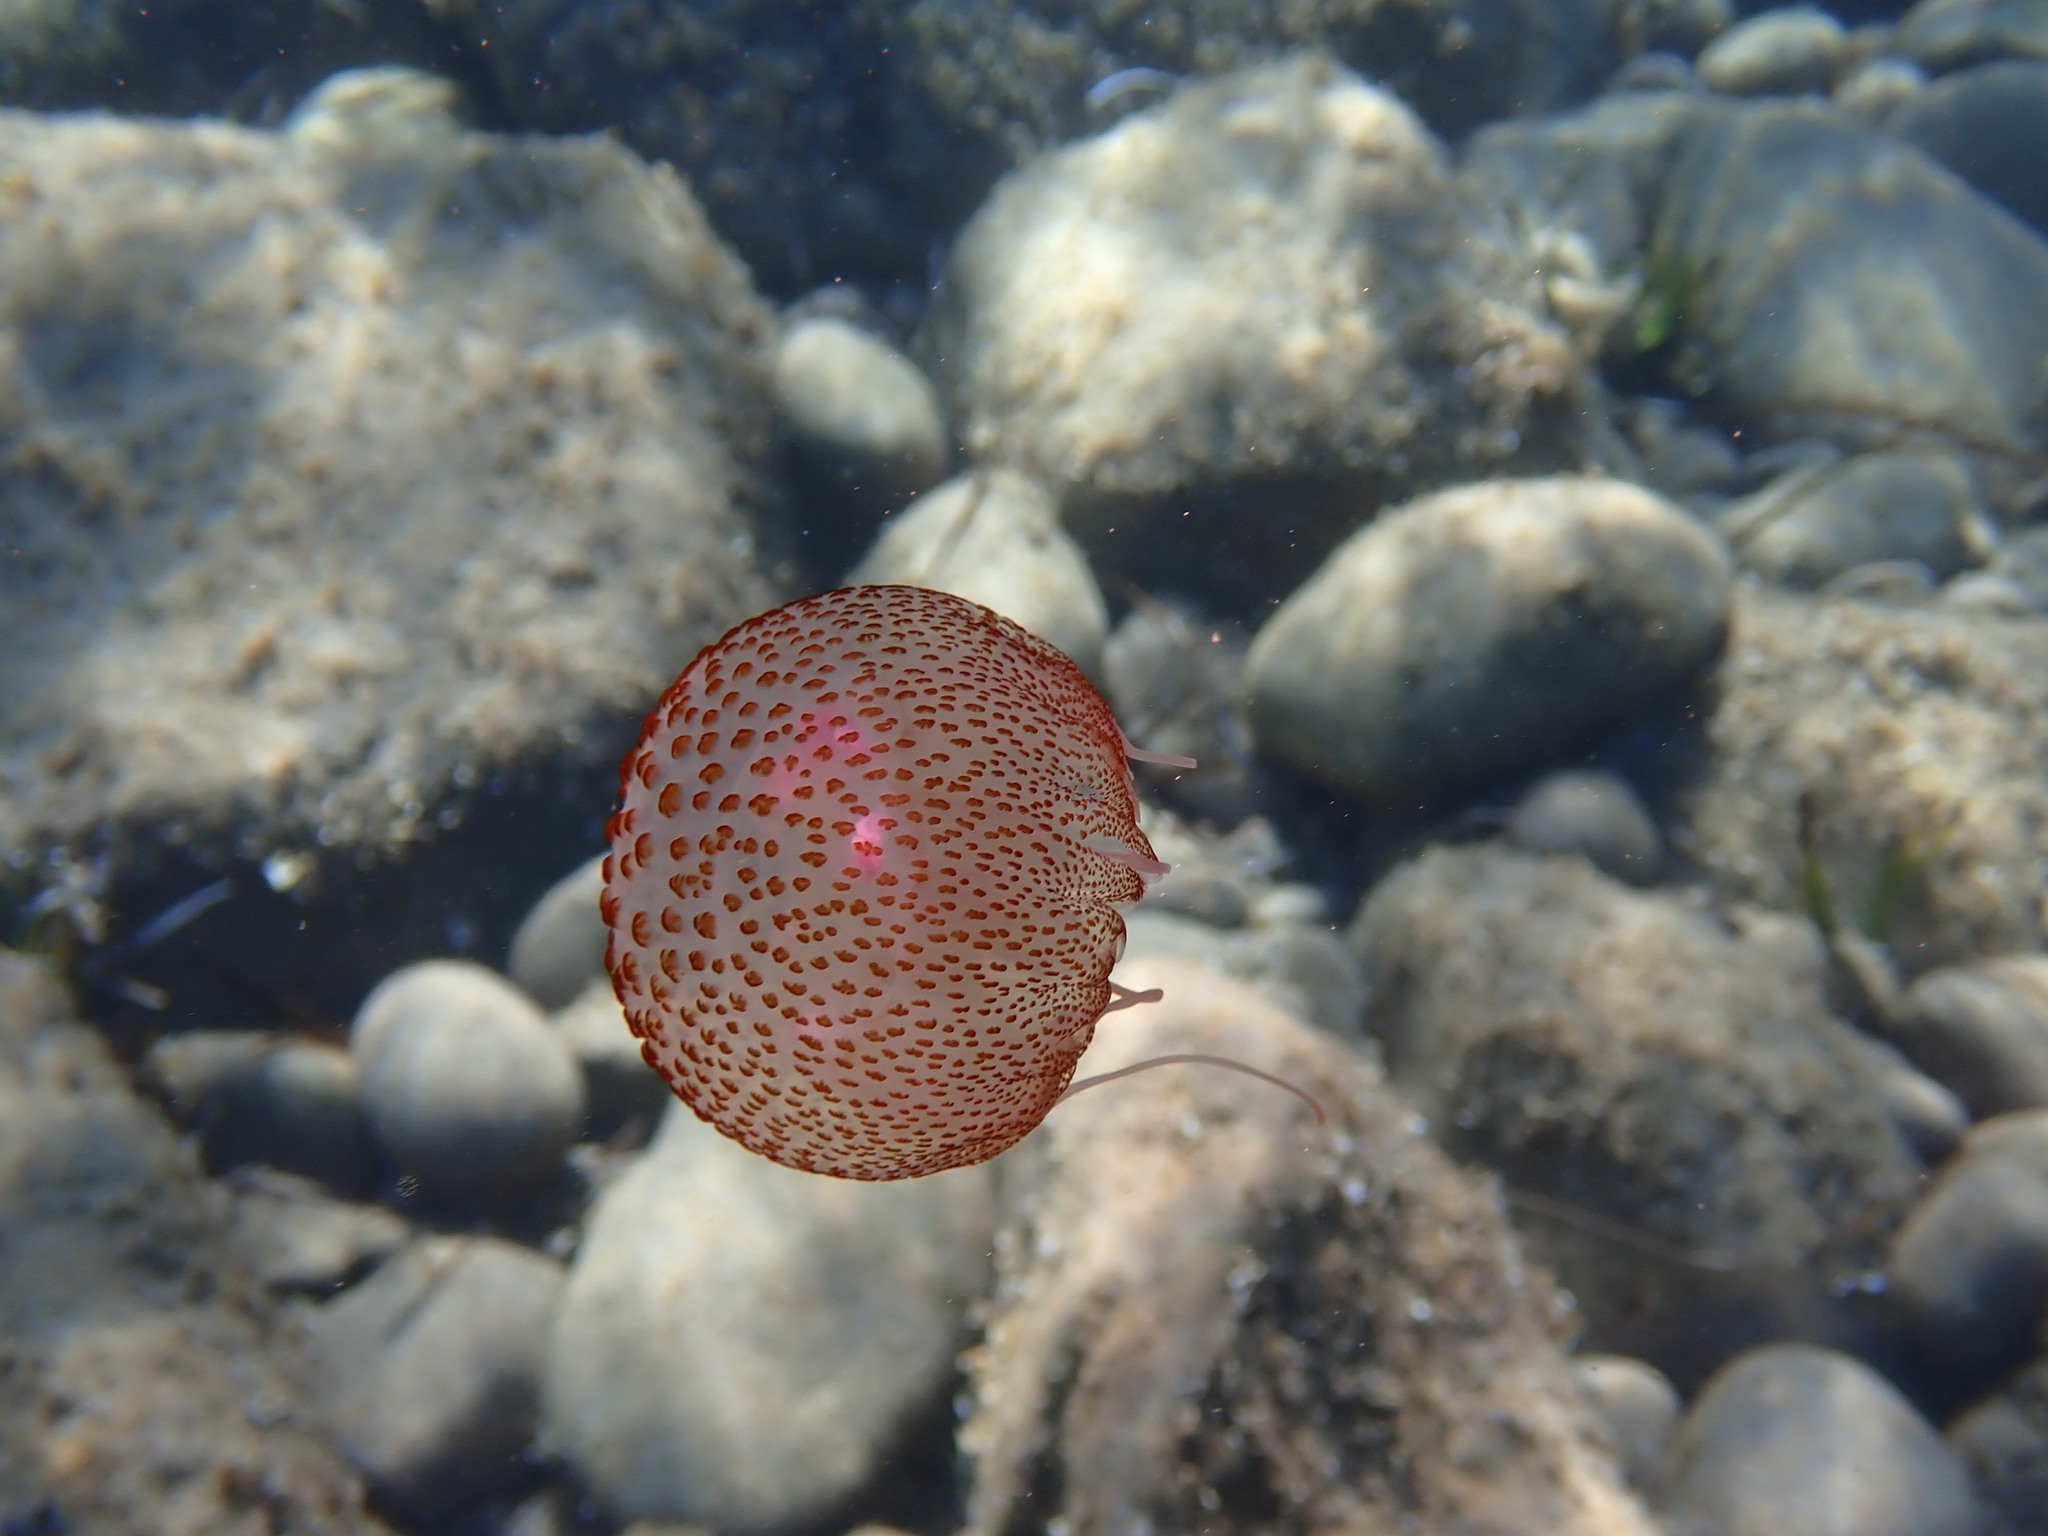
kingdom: Animalia
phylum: Cnidaria
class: Scyphozoa
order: Semaeostomeae
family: Pelagiidae
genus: Pelagia
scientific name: Pelagia noctiluca
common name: Mauve stinger
